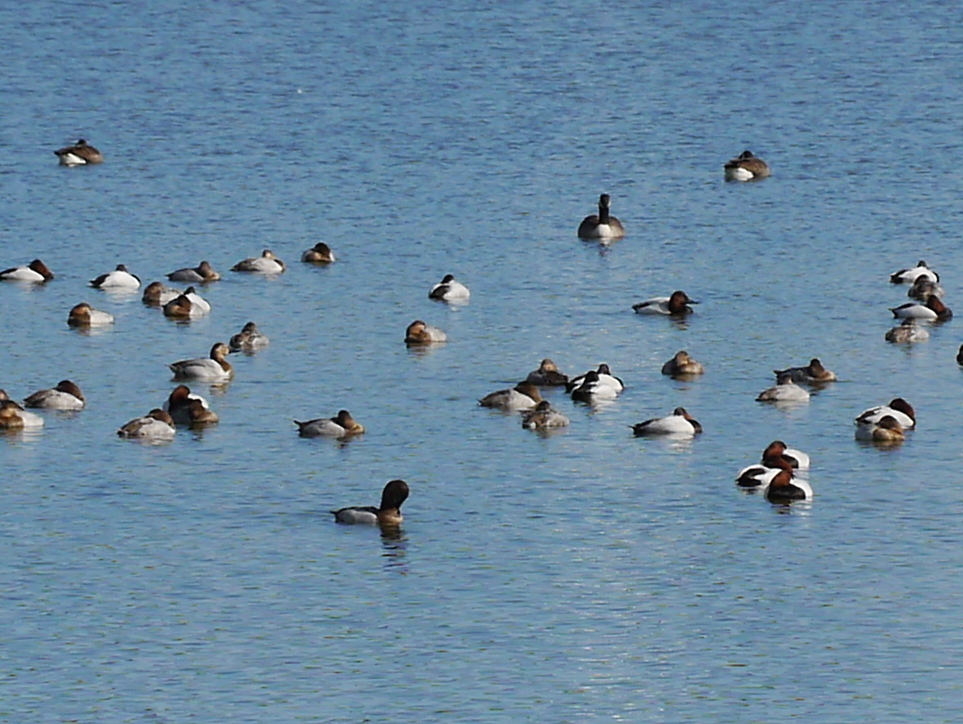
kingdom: Animalia
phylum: Chordata
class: Aves
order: Anseriformes
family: Anatidae
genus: Aythya
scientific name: Aythya valisineria
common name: Canvasback
